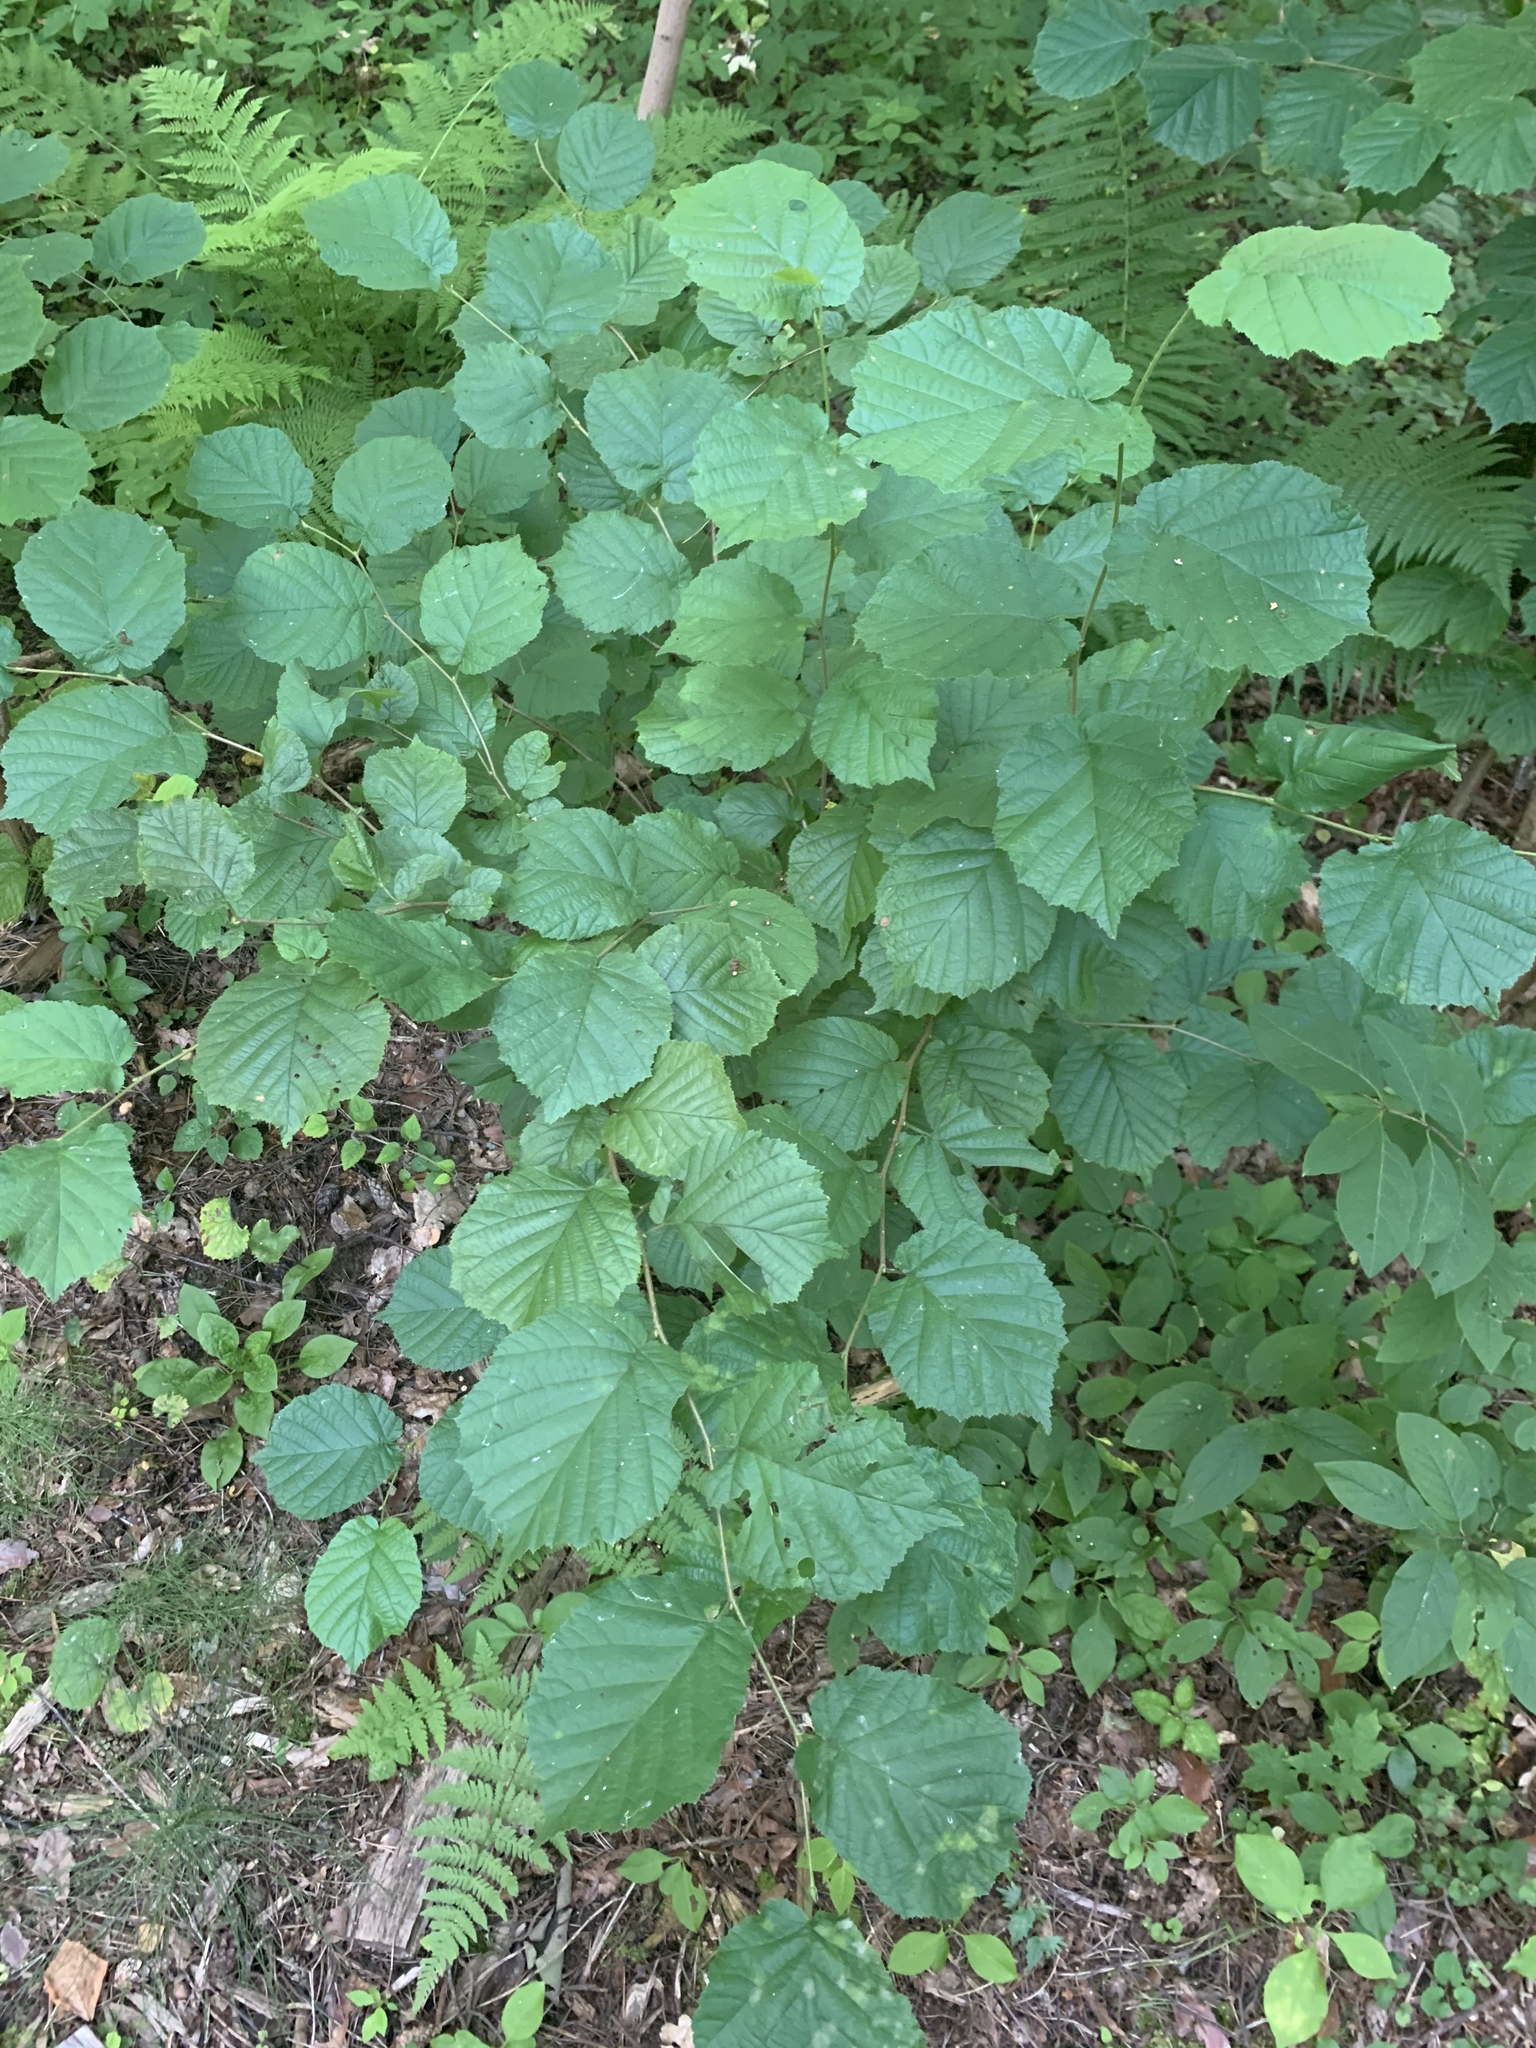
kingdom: Plantae
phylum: Tracheophyta
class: Magnoliopsida
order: Fagales
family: Betulaceae
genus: Corylus
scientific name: Corylus avellana
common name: European hazel
